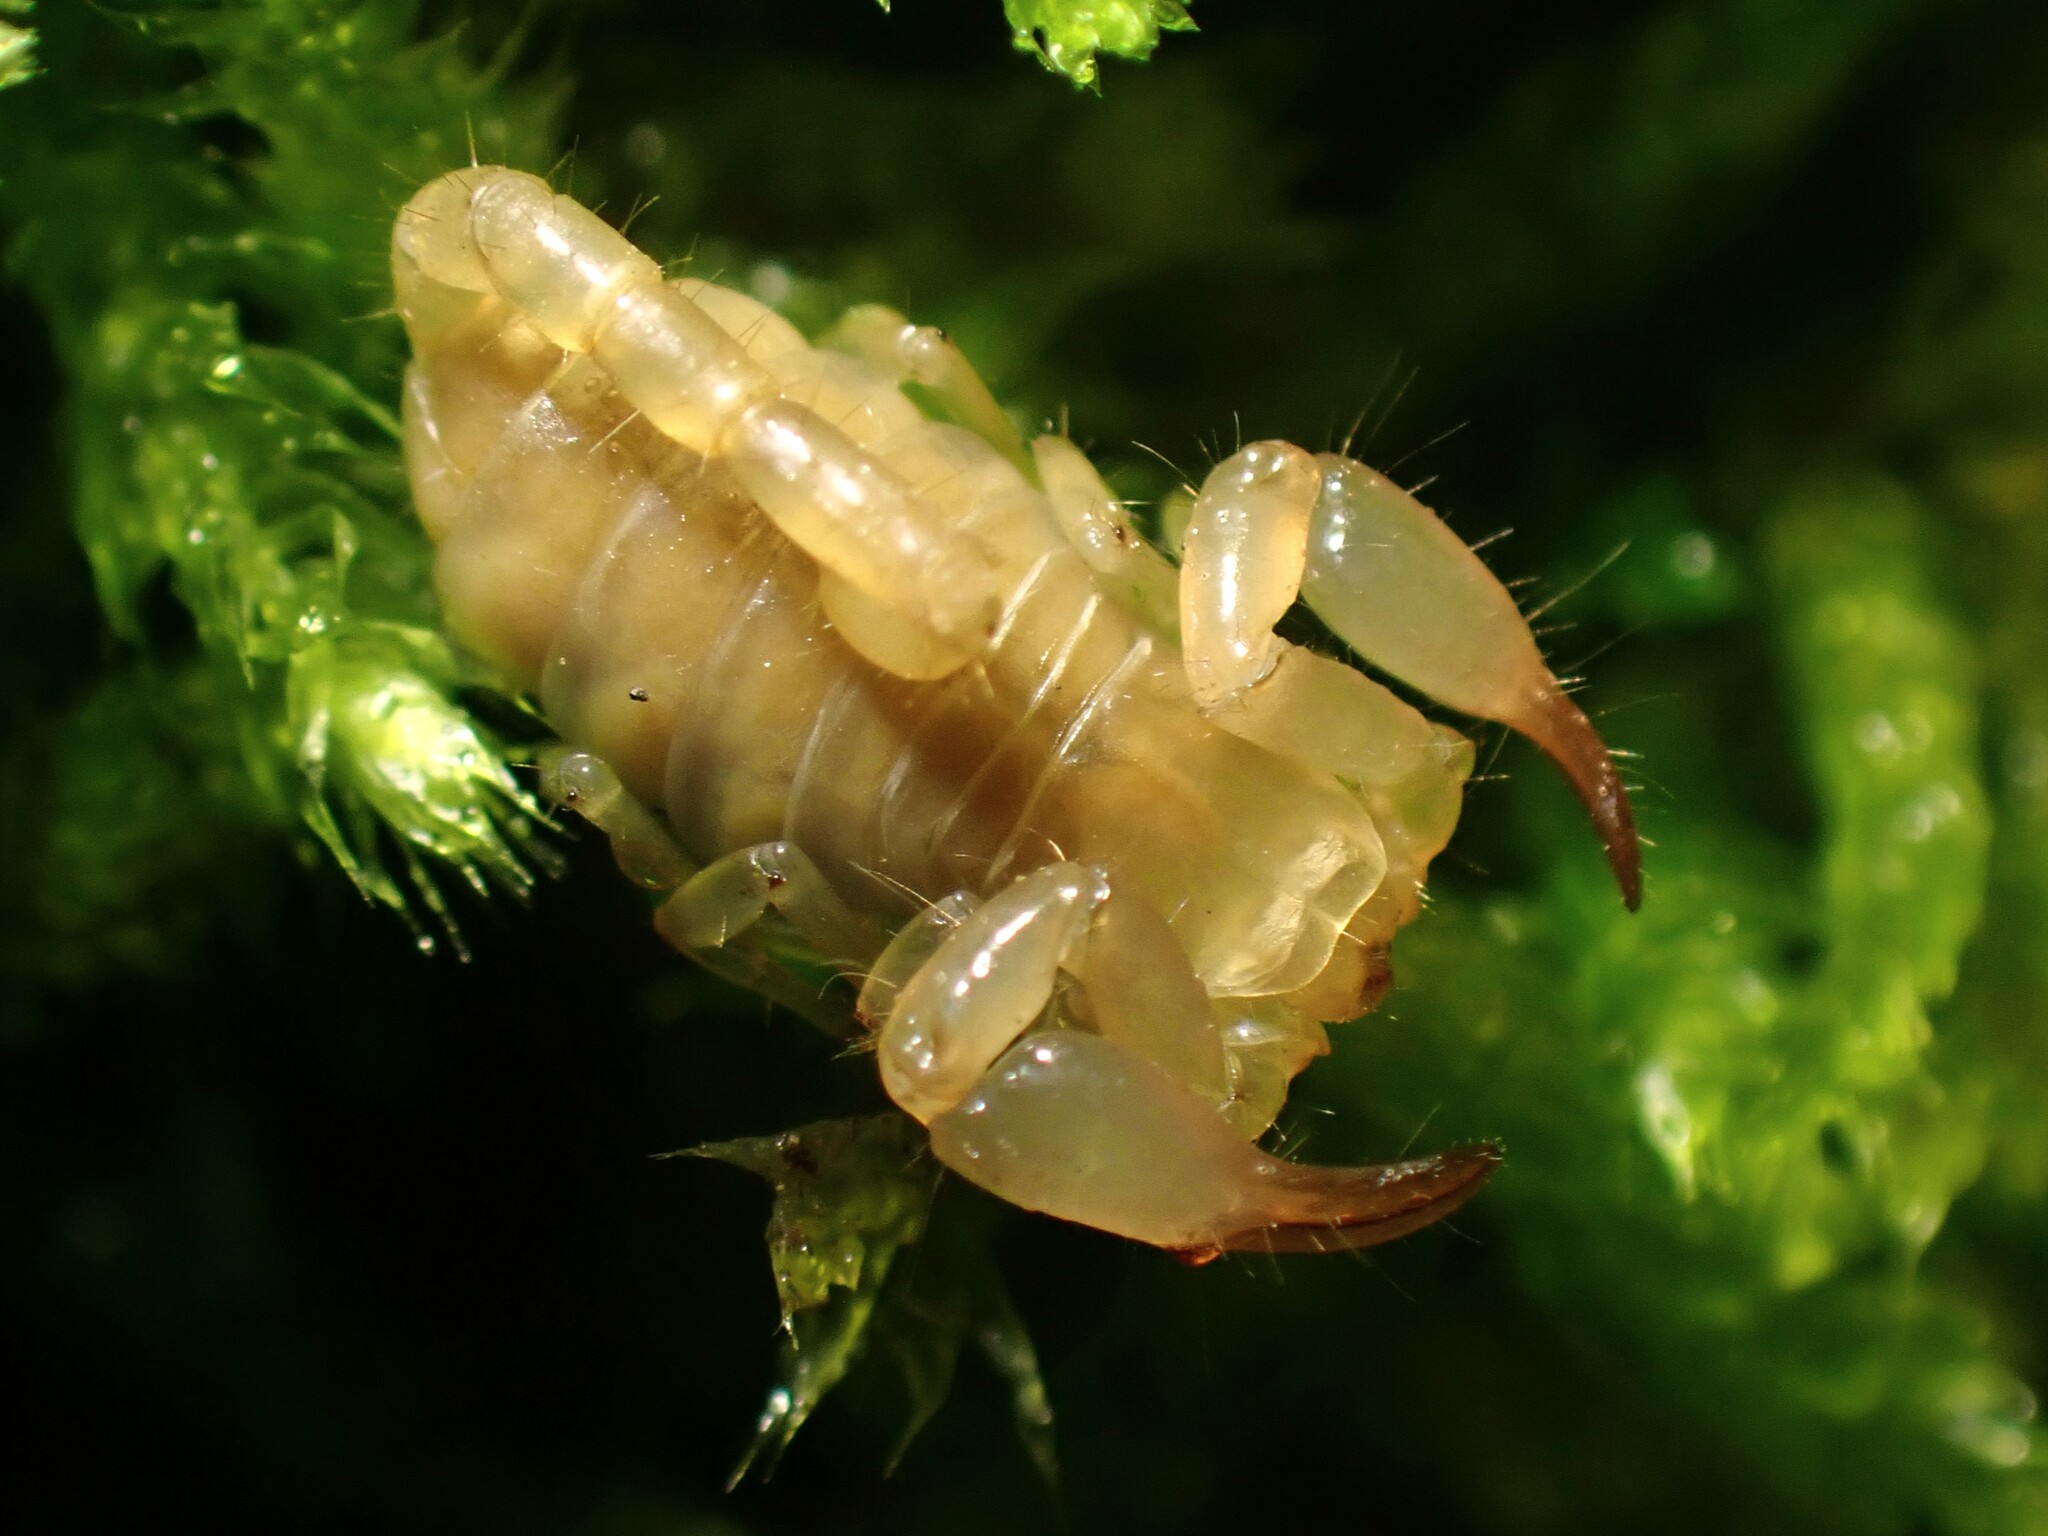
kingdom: Animalia
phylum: Arthropoda
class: Arachnida
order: Scorpiones
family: Belisariidae
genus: Belisarius
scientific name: Belisarius xambeui
